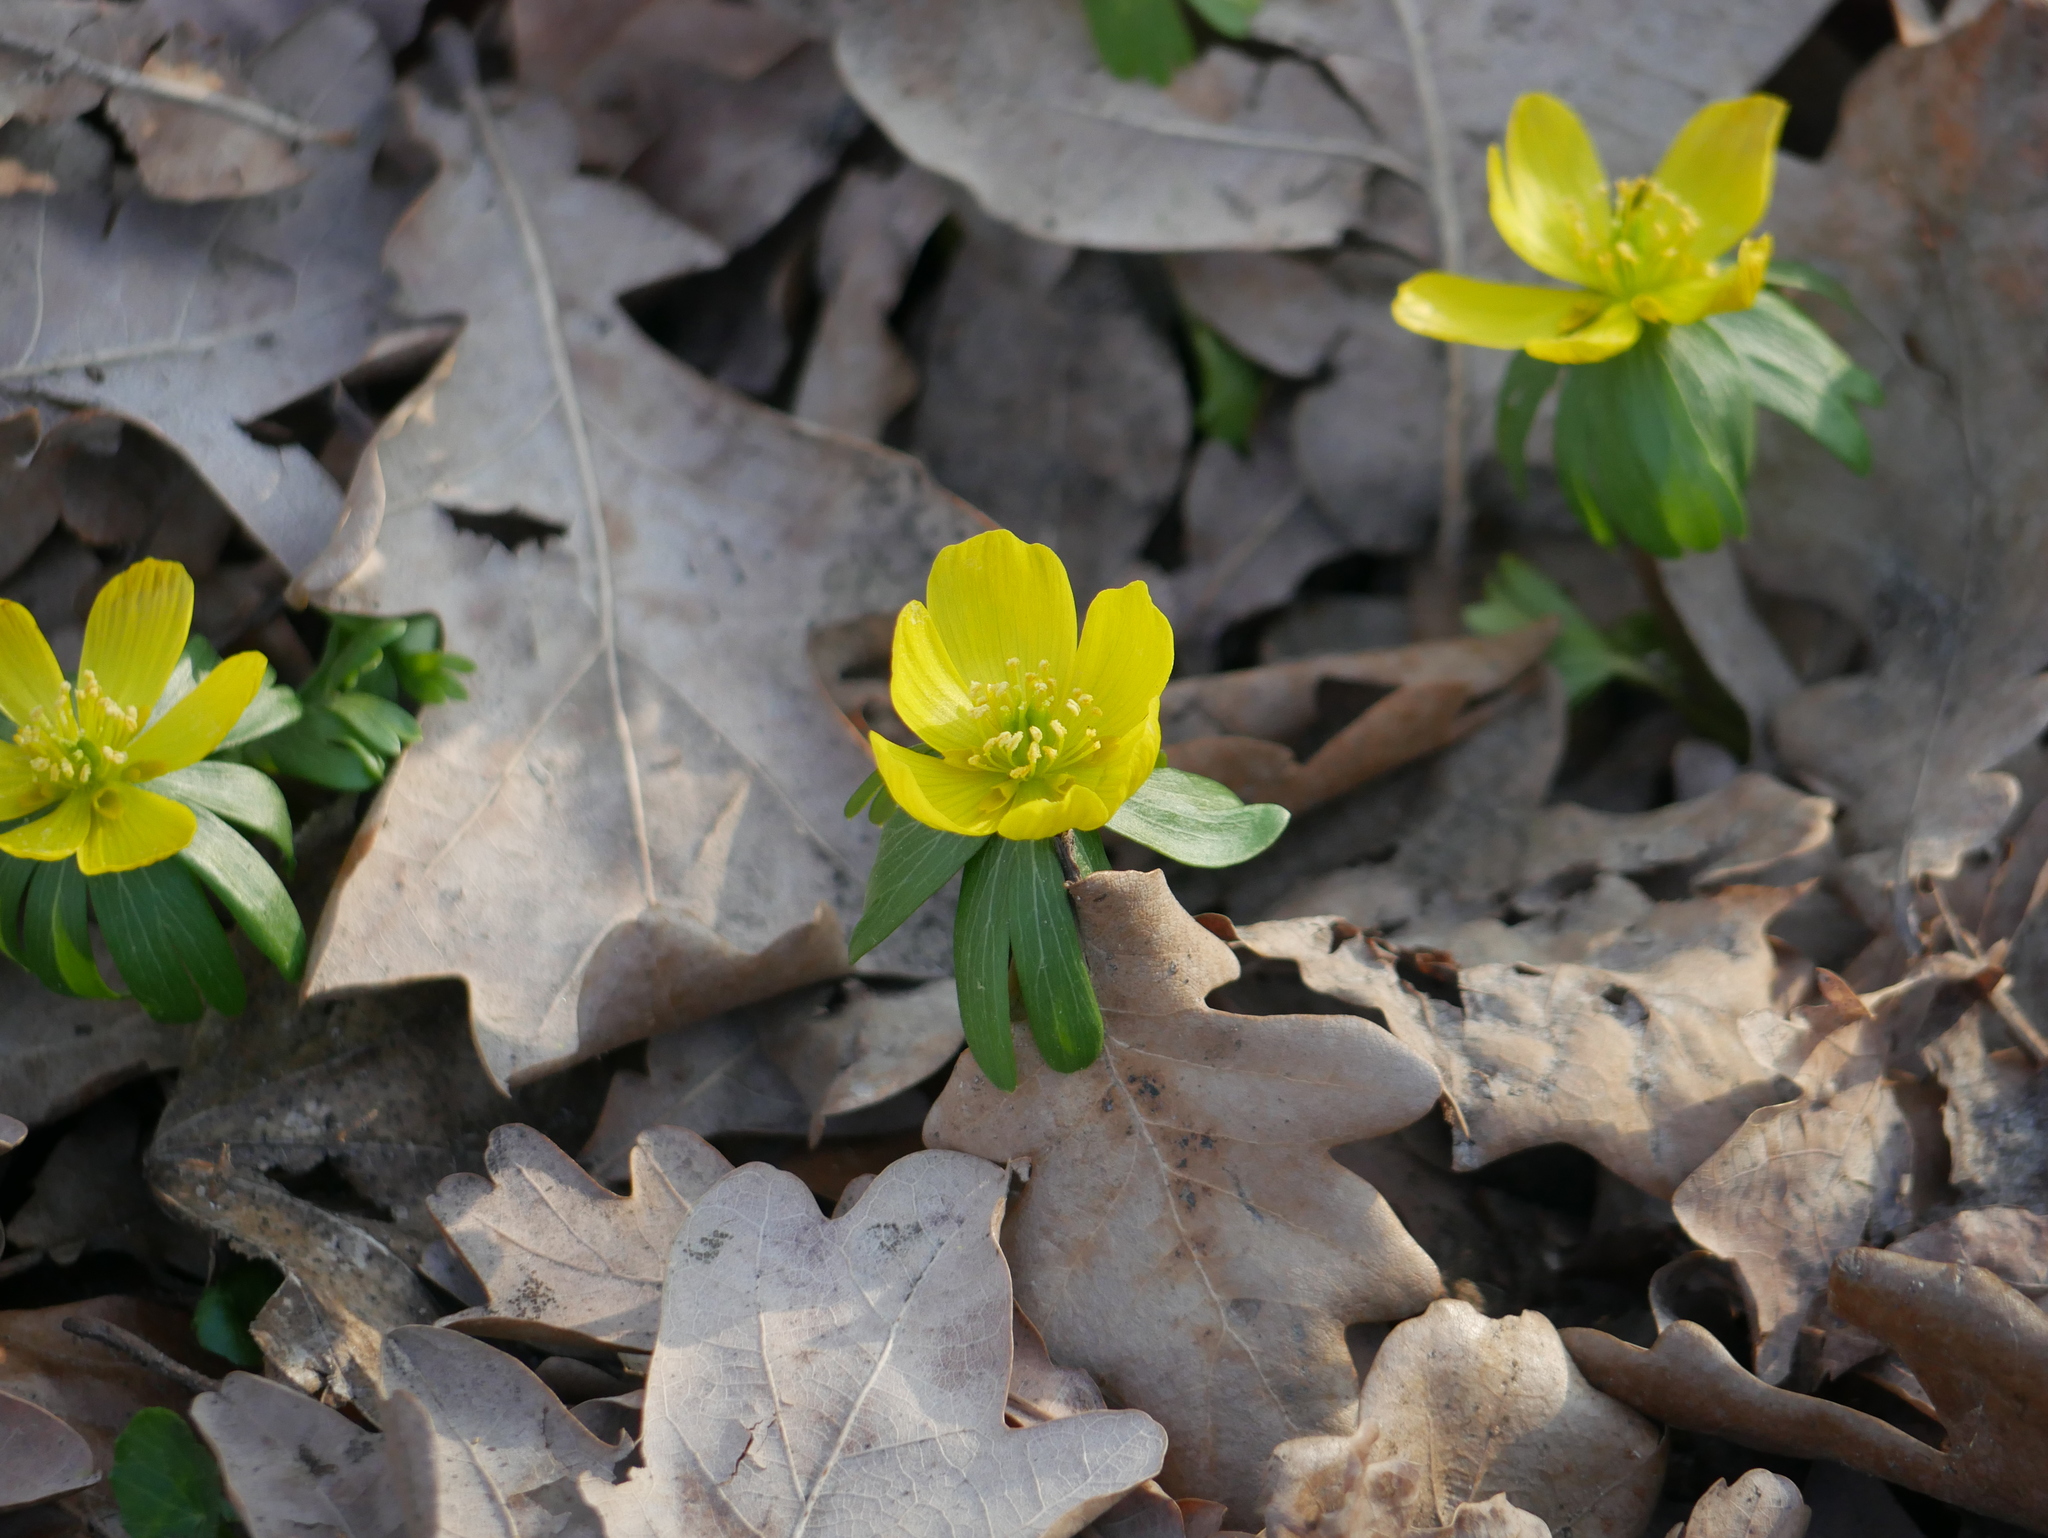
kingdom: Plantae
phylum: Tracheophyta
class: Magnoliopsida
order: Ranunculales
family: Ranunculaceae
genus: Eranthis
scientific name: Eranthis hyemalis
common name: Winter aconite
